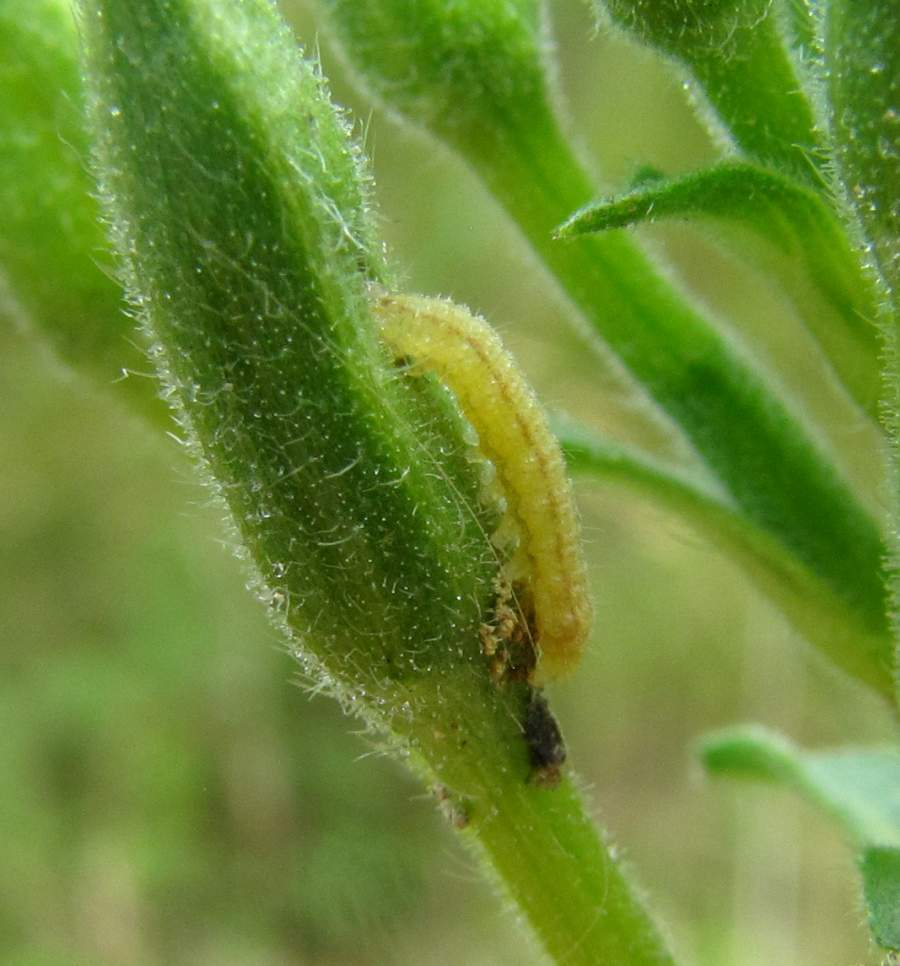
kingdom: Animalia
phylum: Arthropoda
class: Insecta
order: Lepidoptera
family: Noctuidae
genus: Schinia
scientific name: Schinia florida
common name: Primrose moth
